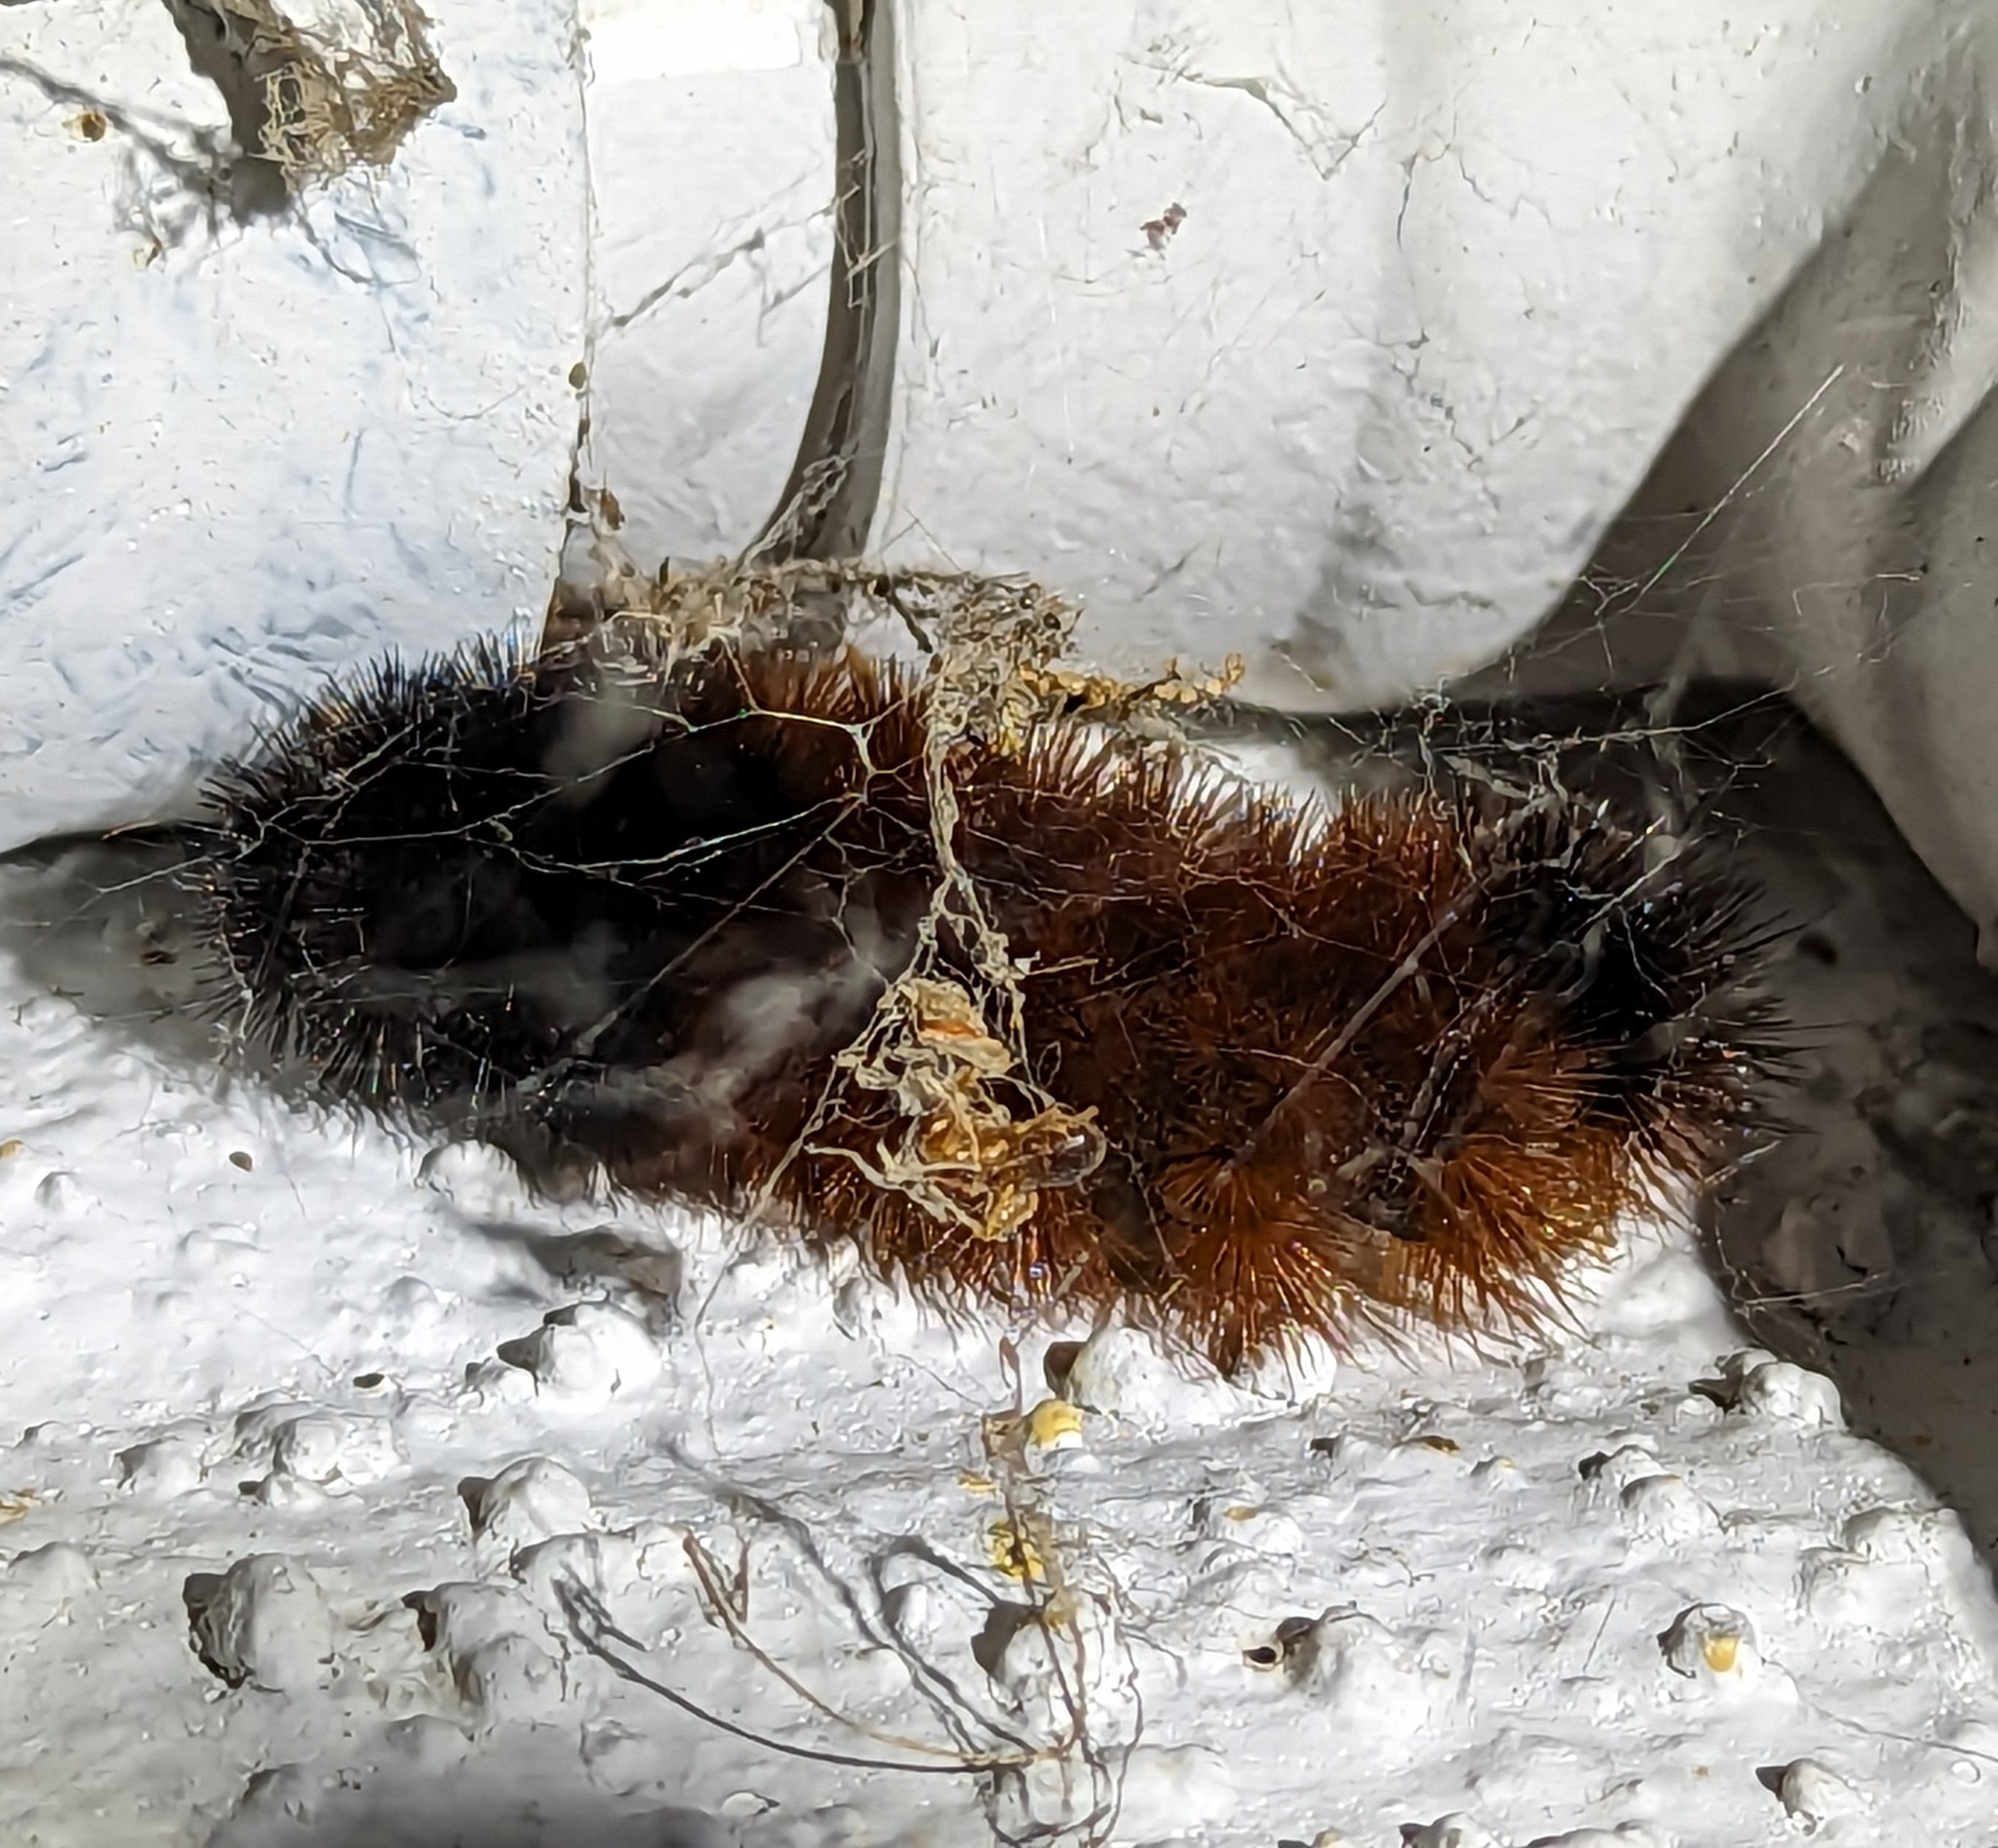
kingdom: Animalia
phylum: Arthropoda
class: Insecta
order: Lepidoptera
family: Erebidae
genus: Pyrrharctia
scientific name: Pyrrharctia isabella
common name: Isabella tiger moth
